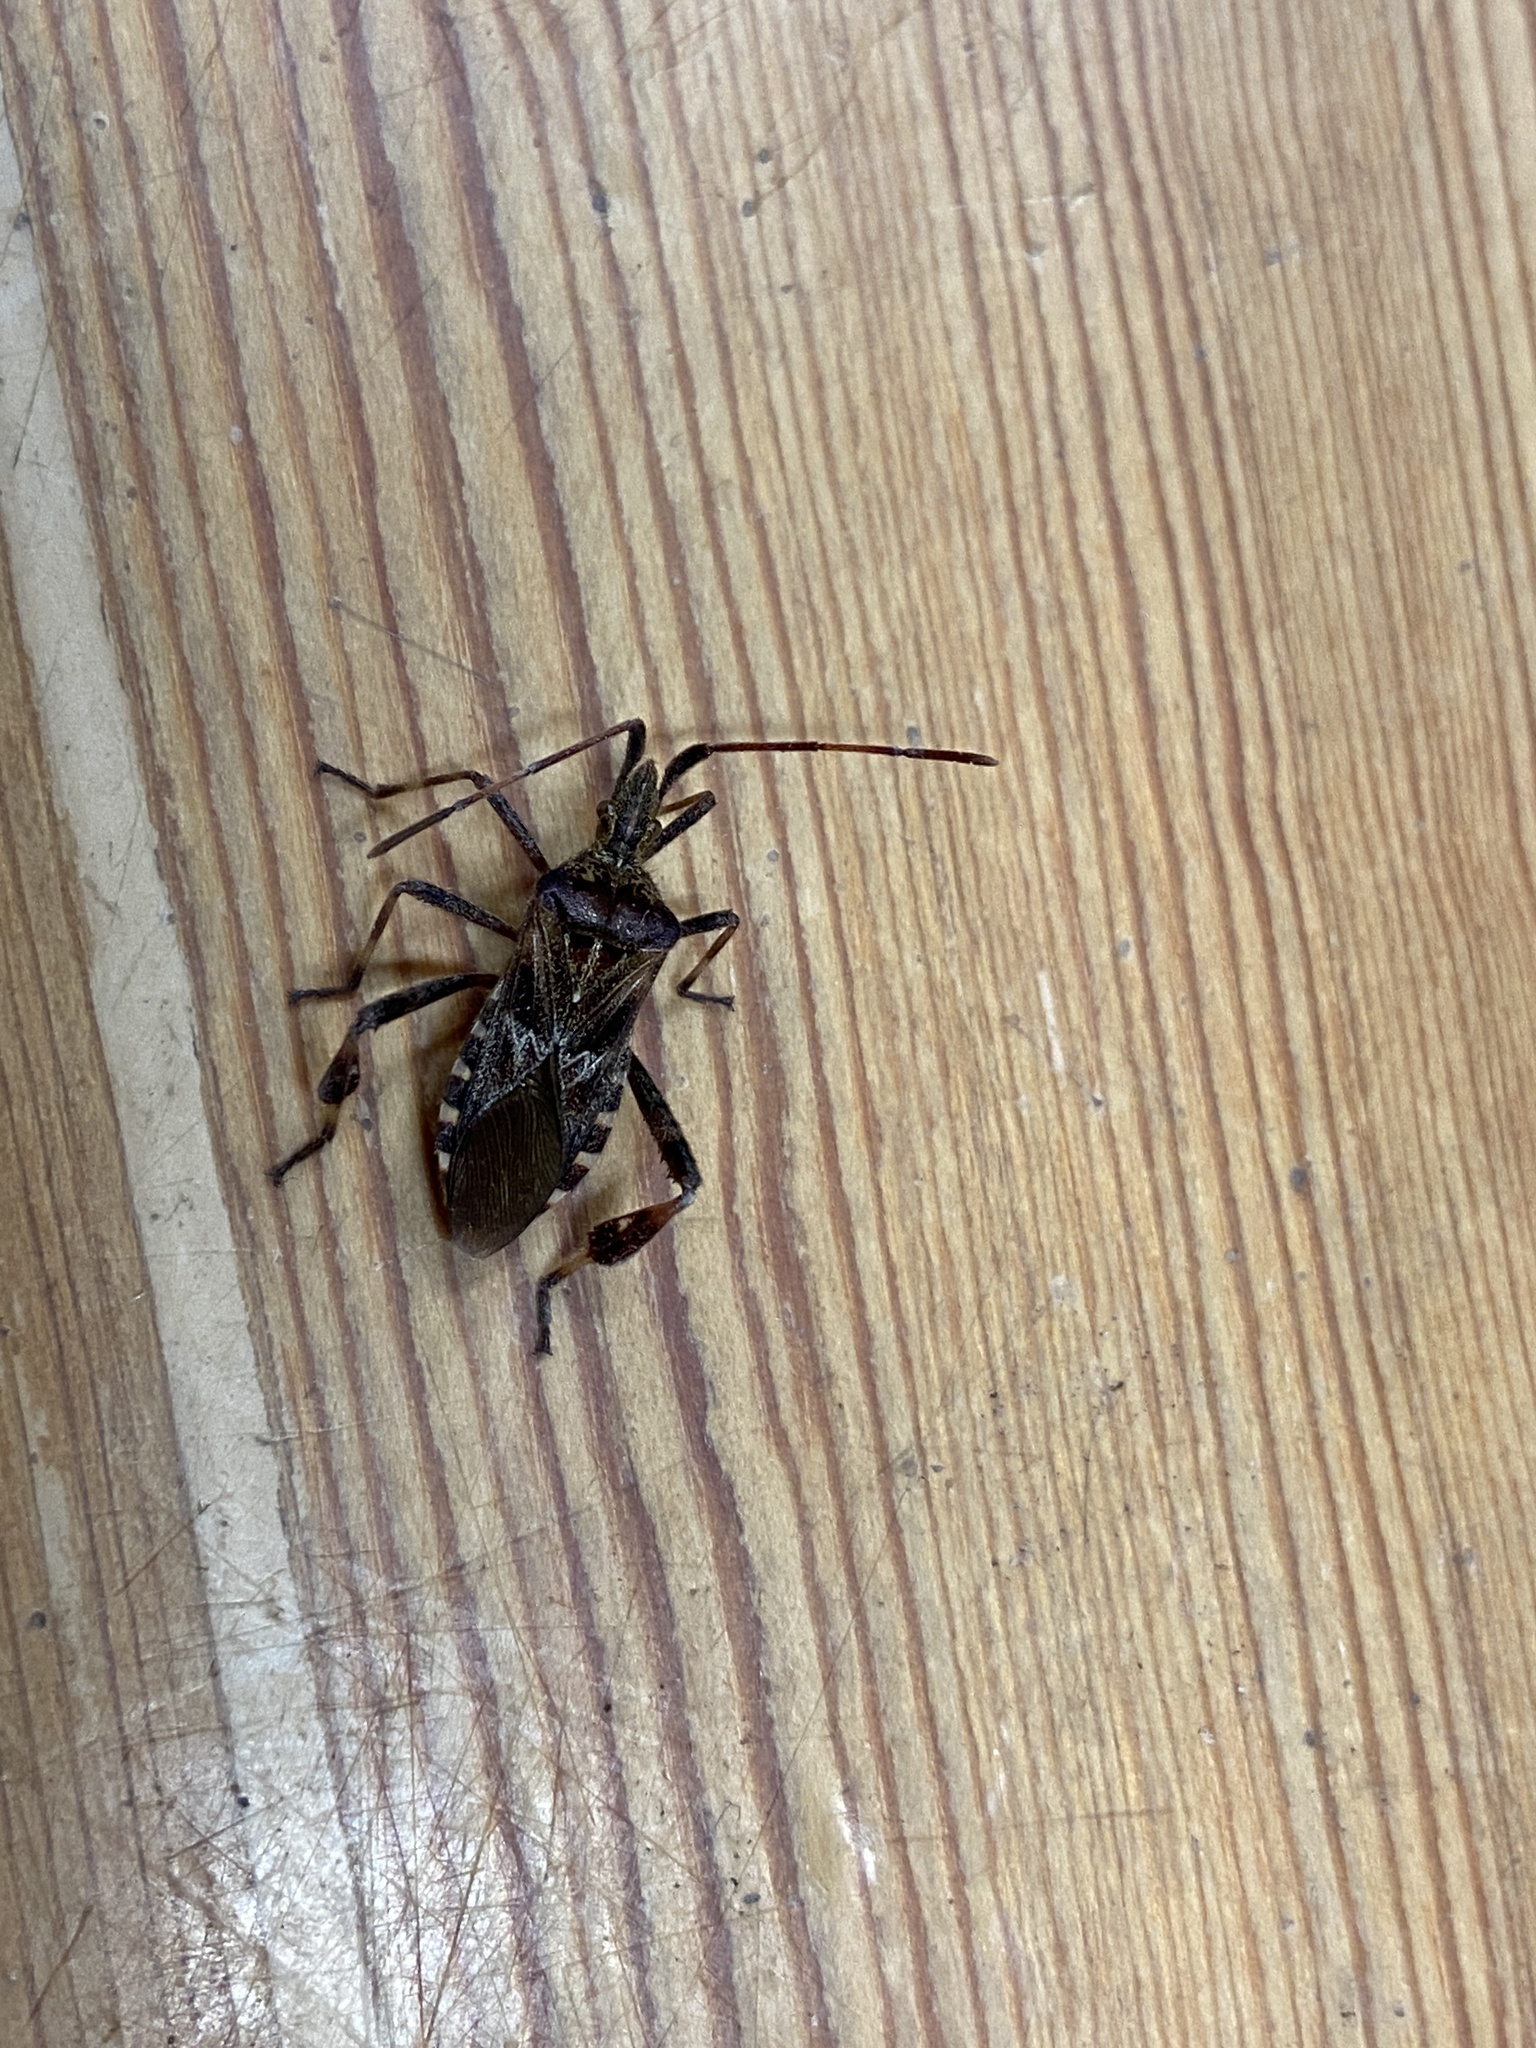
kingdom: Animalia
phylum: Arthropoda
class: Insecta
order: Hemiptera
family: Coreidae
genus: Leptoglossus
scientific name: Leptoglossus occidentalis
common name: Western conifer-seed bug
